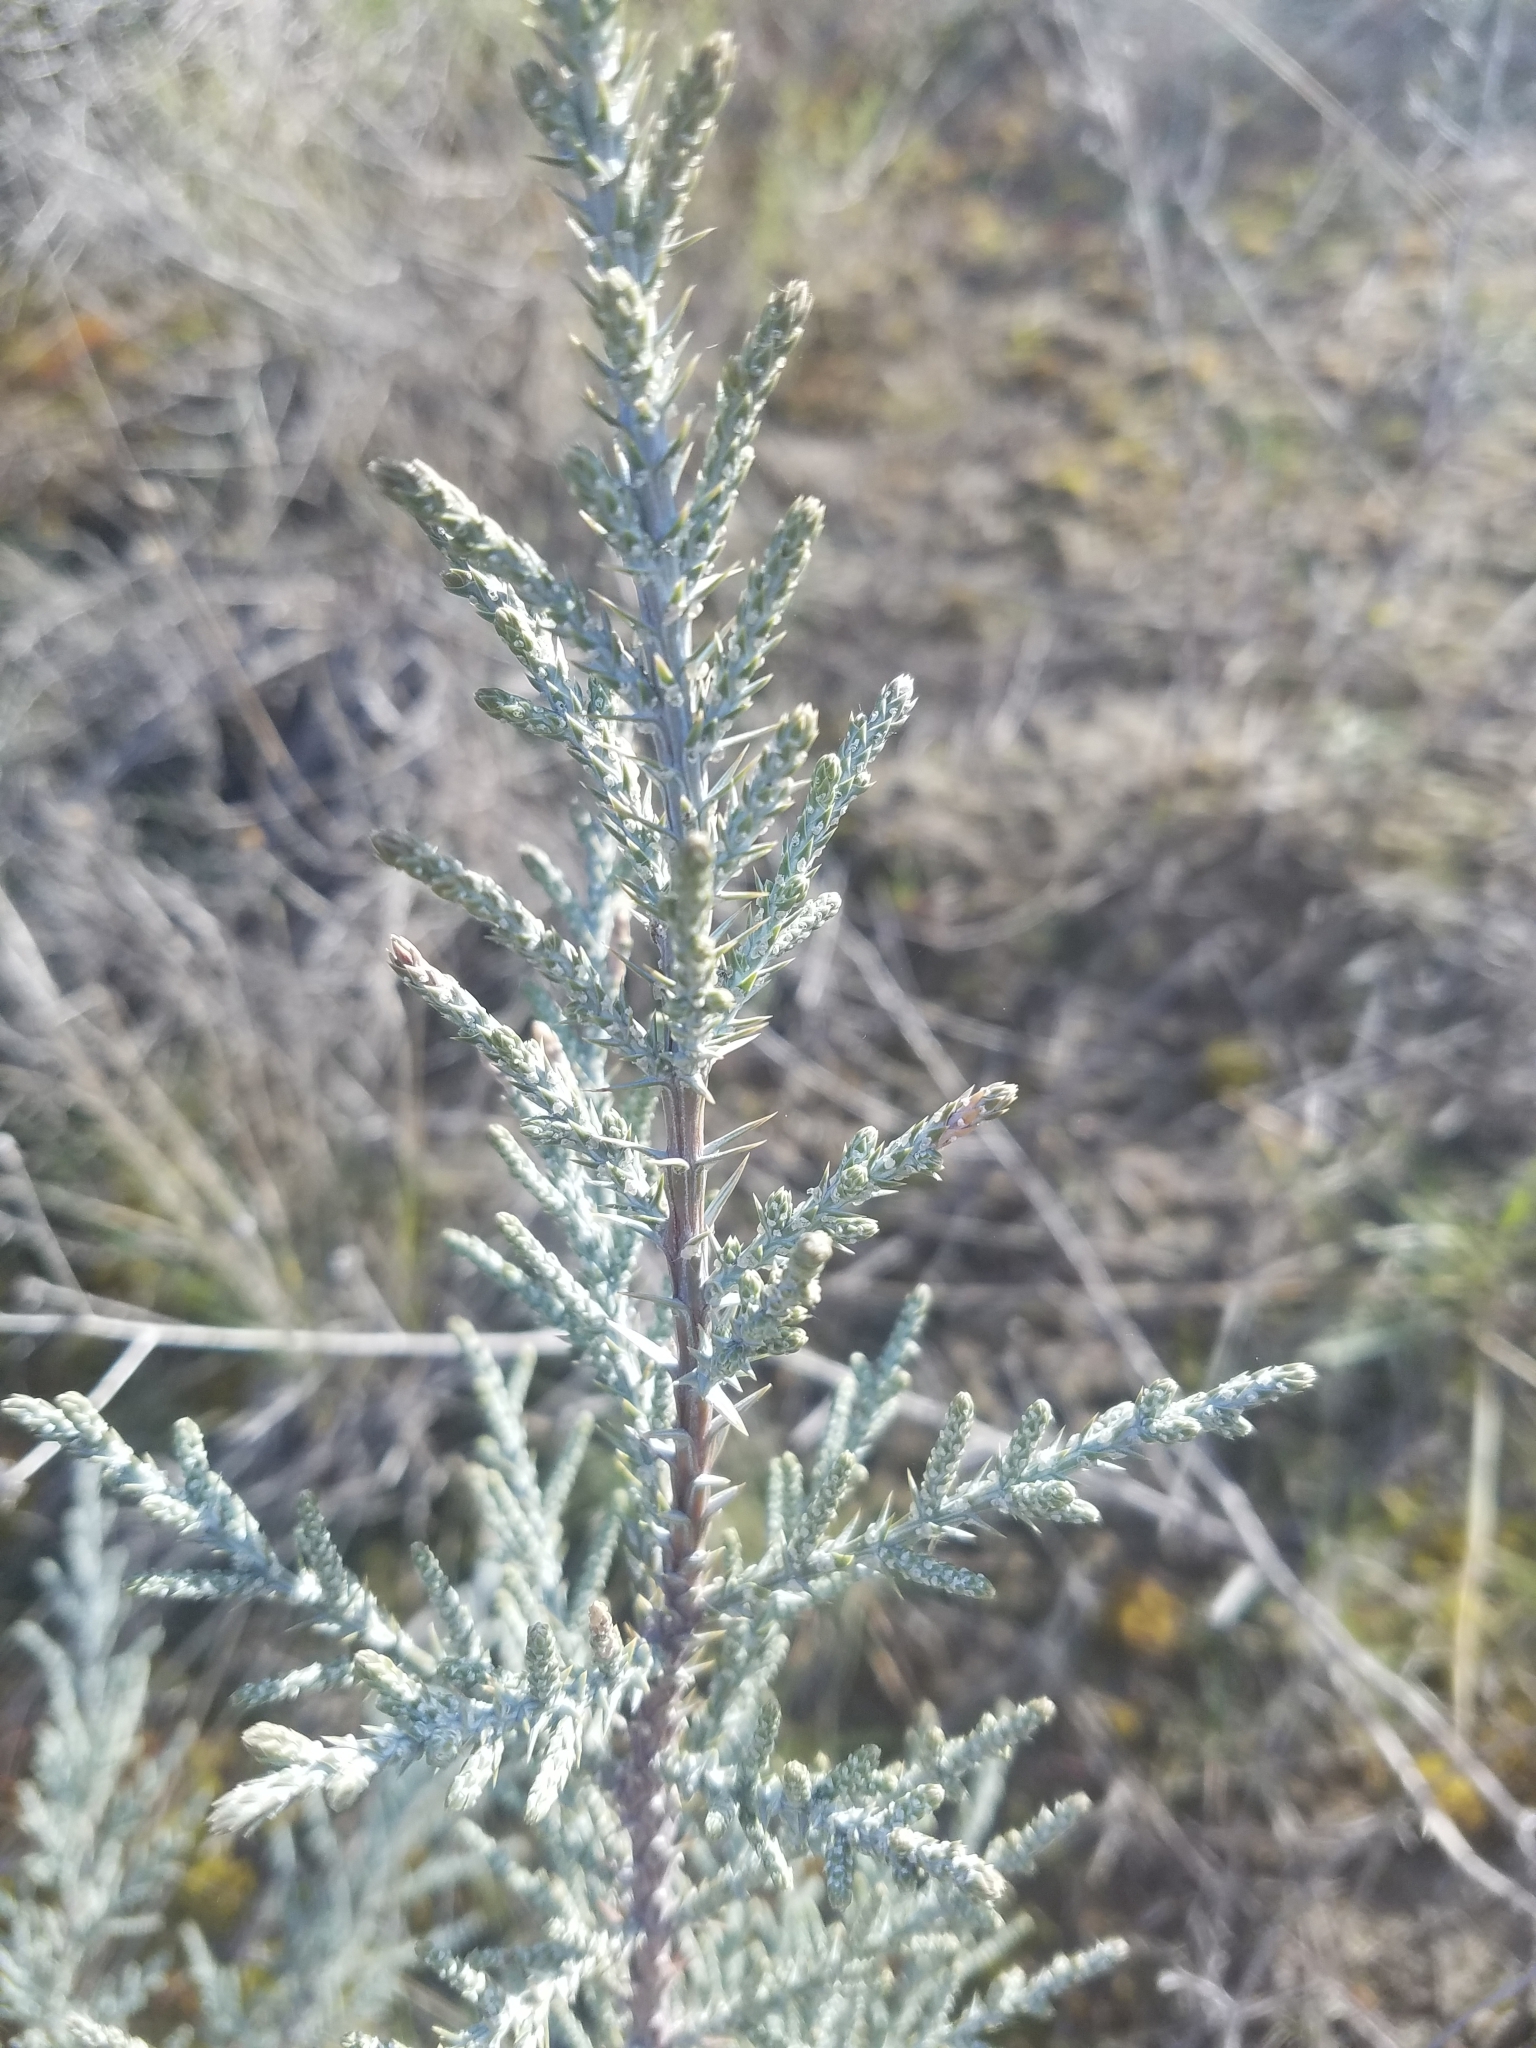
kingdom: Plantae
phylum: Tracheophyta
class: Pinopsida
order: Pinales
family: Cupressaceae
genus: Juniperus
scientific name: Juniperus occidentalis
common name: Western juniper
